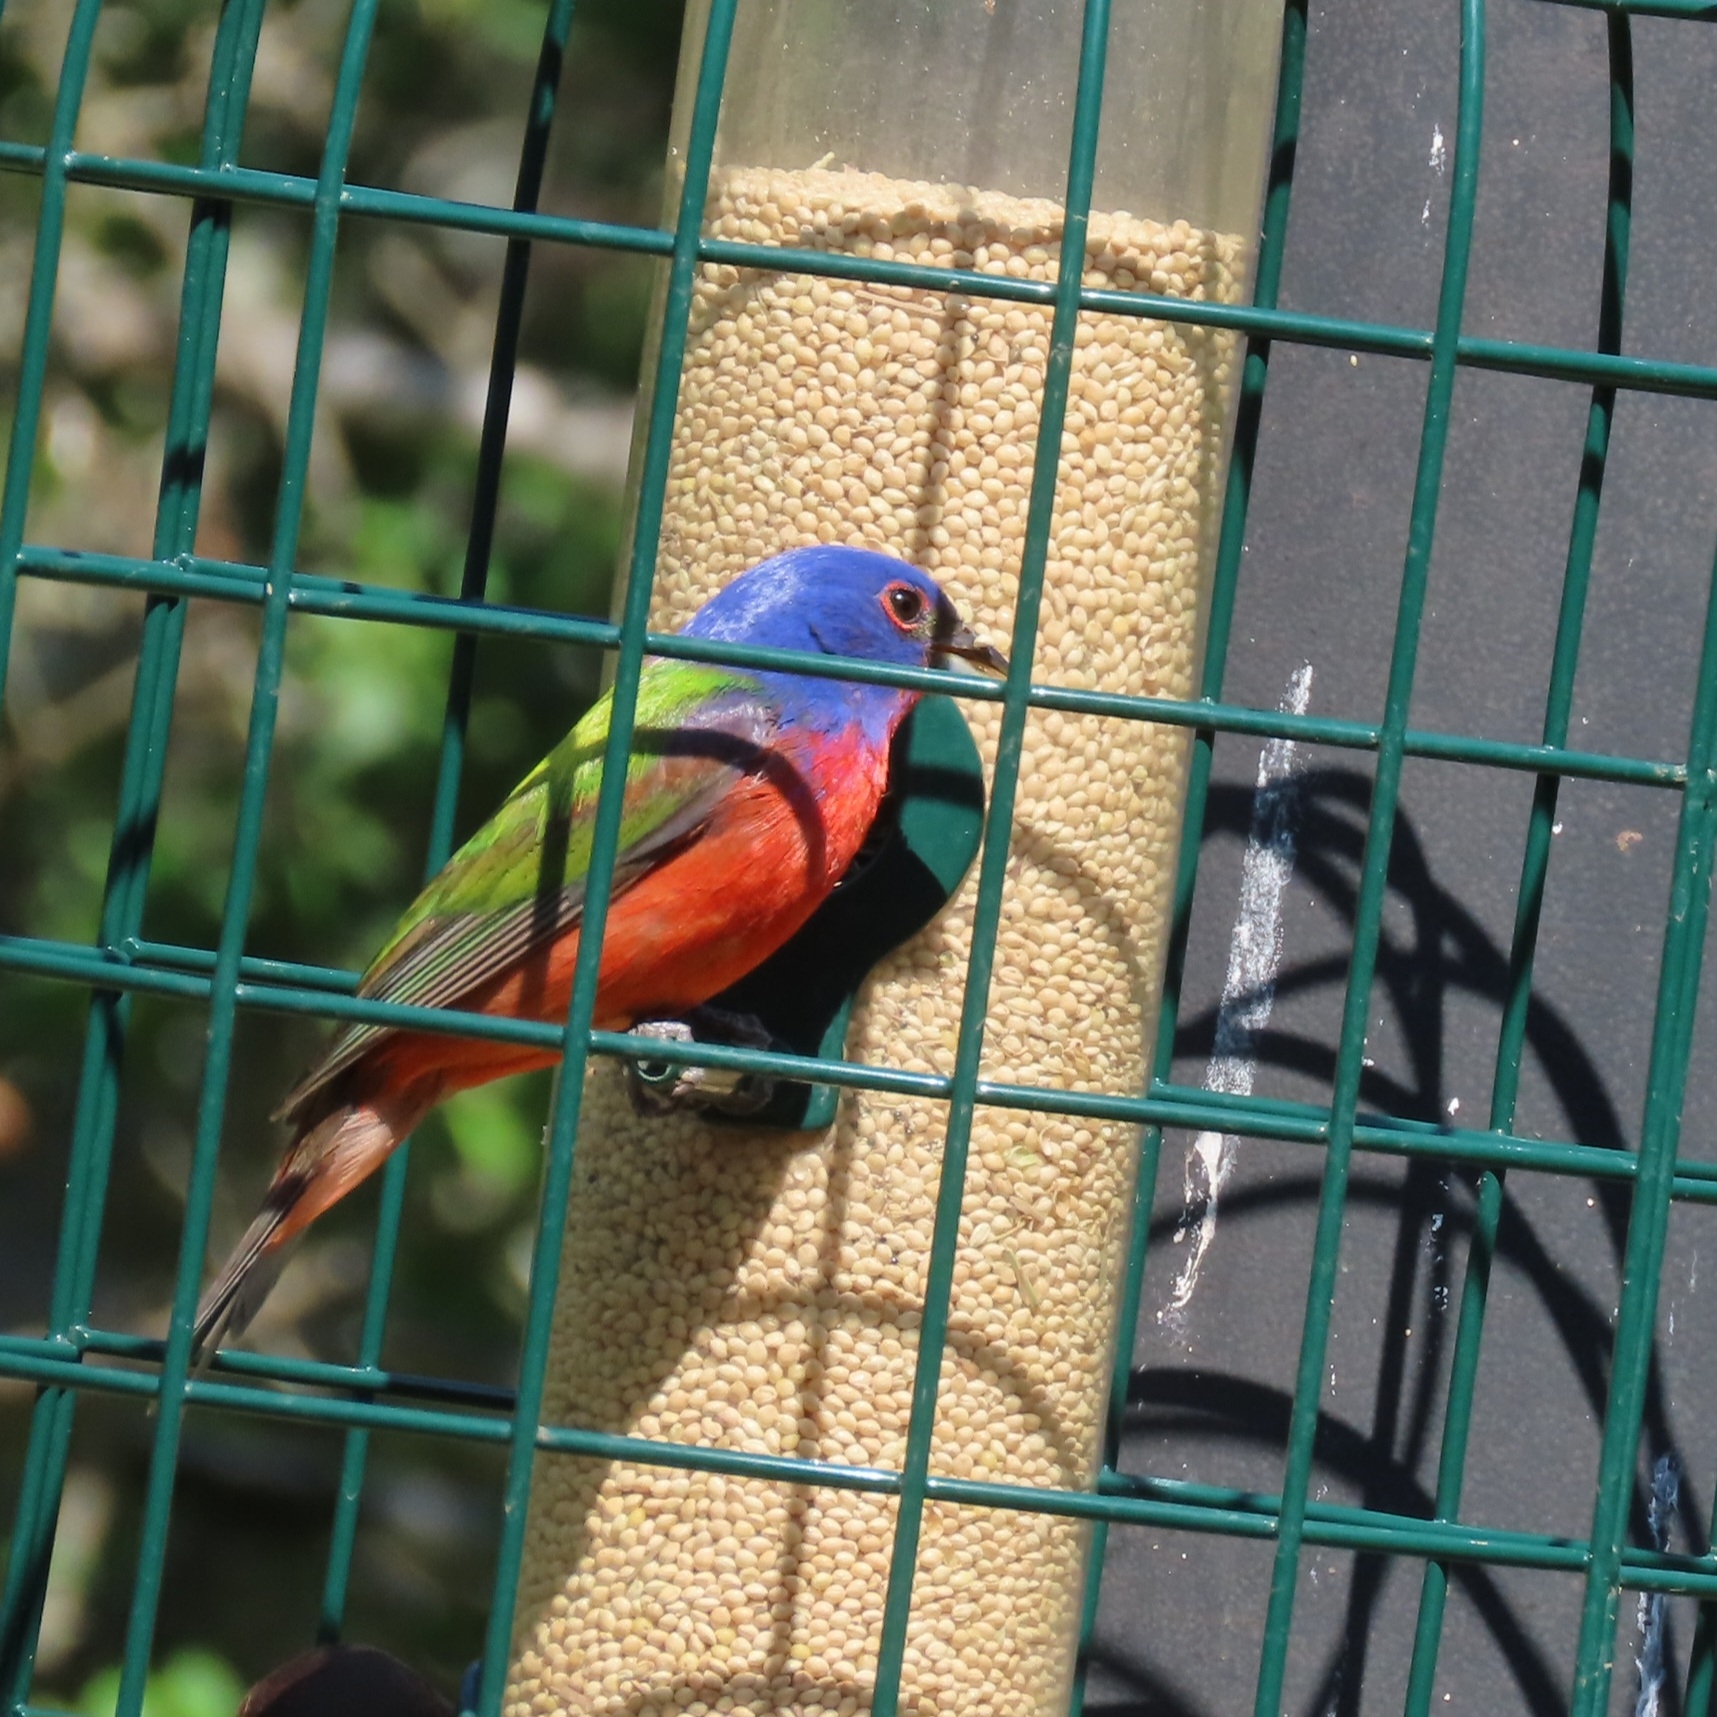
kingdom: Animalia
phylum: Chordata
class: Aves
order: Passeriformes
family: Cardinalidae
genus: Passerina
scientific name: Passerina ciris
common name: Painted bunting
